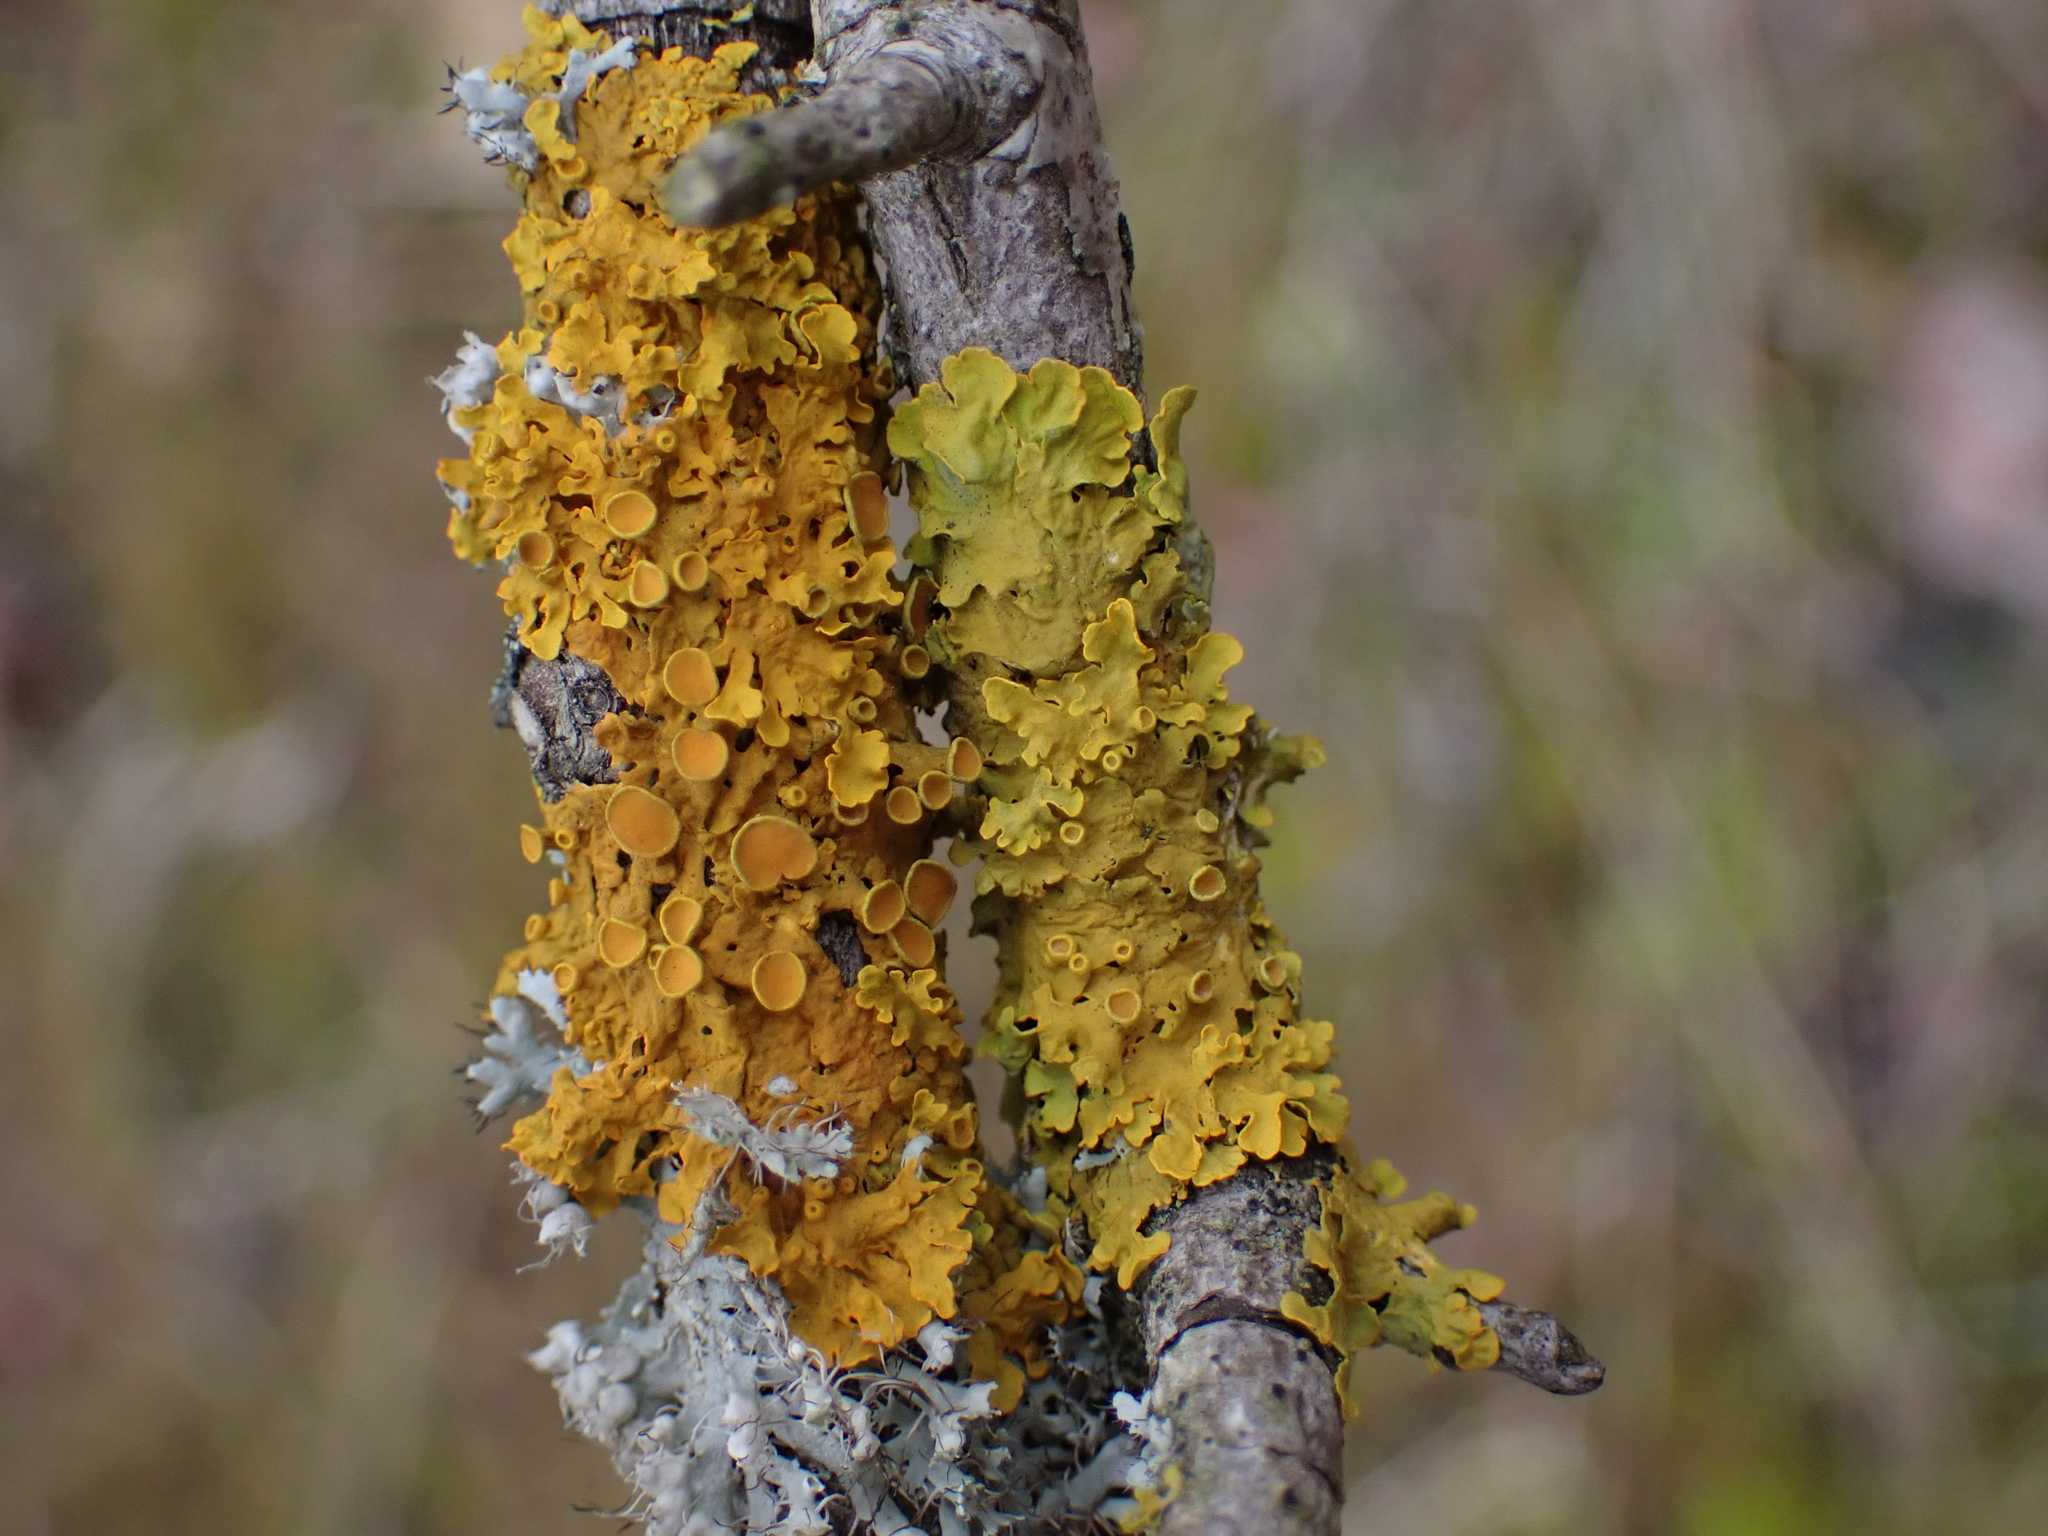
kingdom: Fungi
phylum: Ascomycota
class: Lecanoromycetes
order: Teloschistales
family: Teloschistaceae
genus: Xanthoria
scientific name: Xanthoria parietina
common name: Common orange lichen
